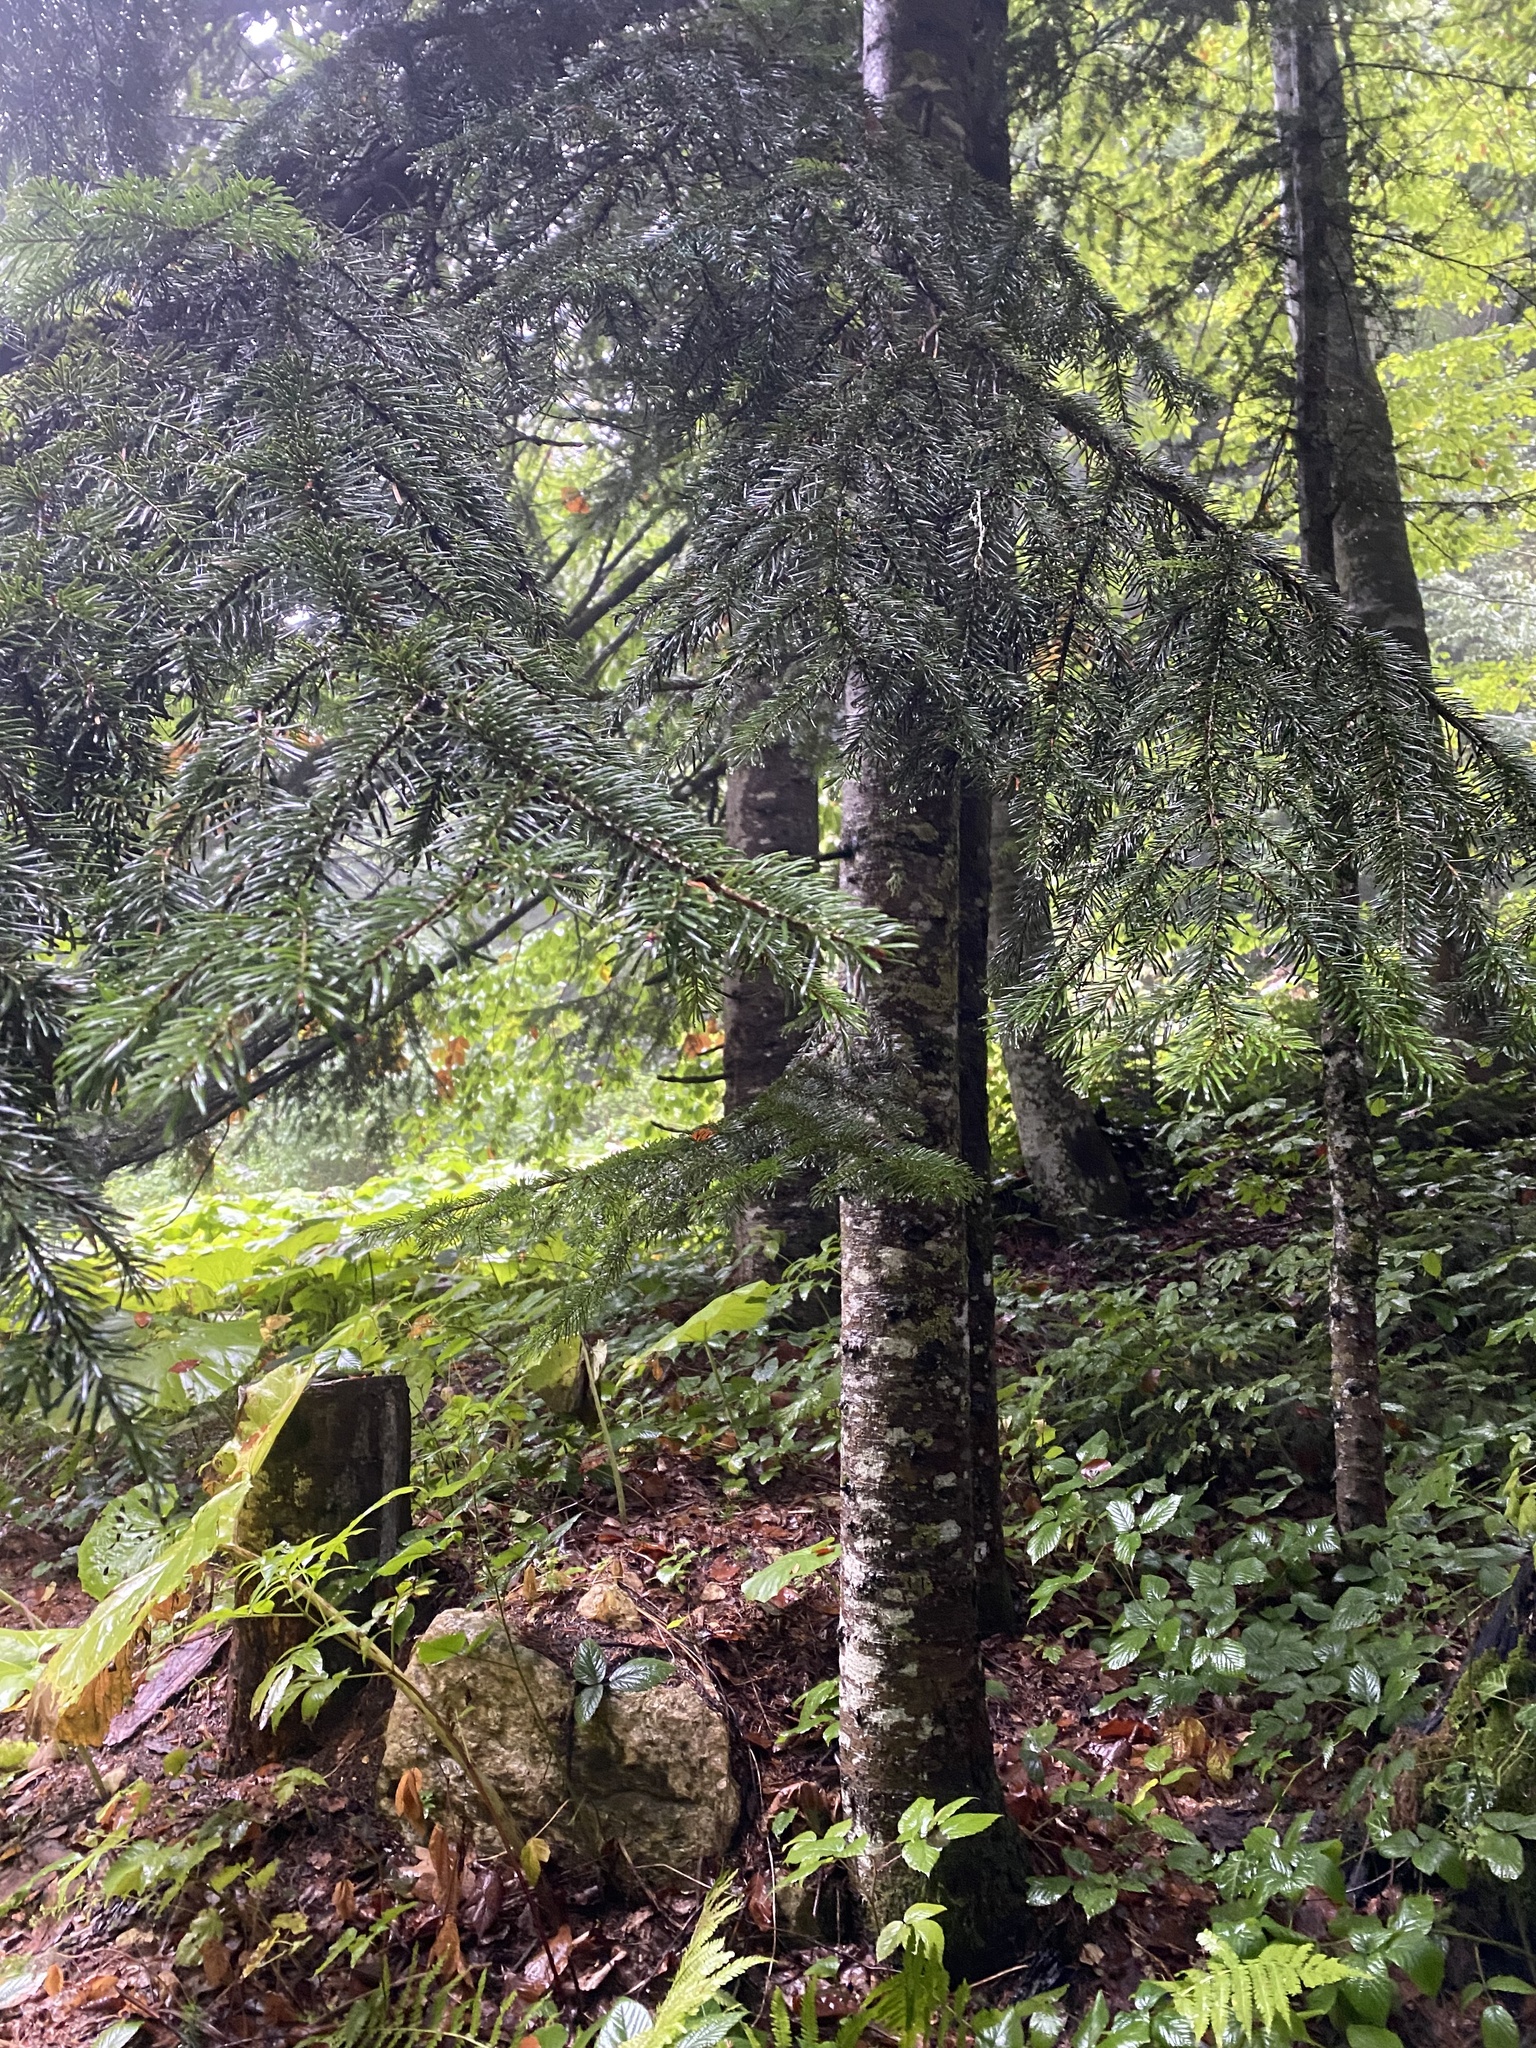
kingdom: Plantae
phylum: Tracheophyta
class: Pinopsida
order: Pinales
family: Pinaceae
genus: Abies
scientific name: Abies nordmanniana
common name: Caucasian fir
